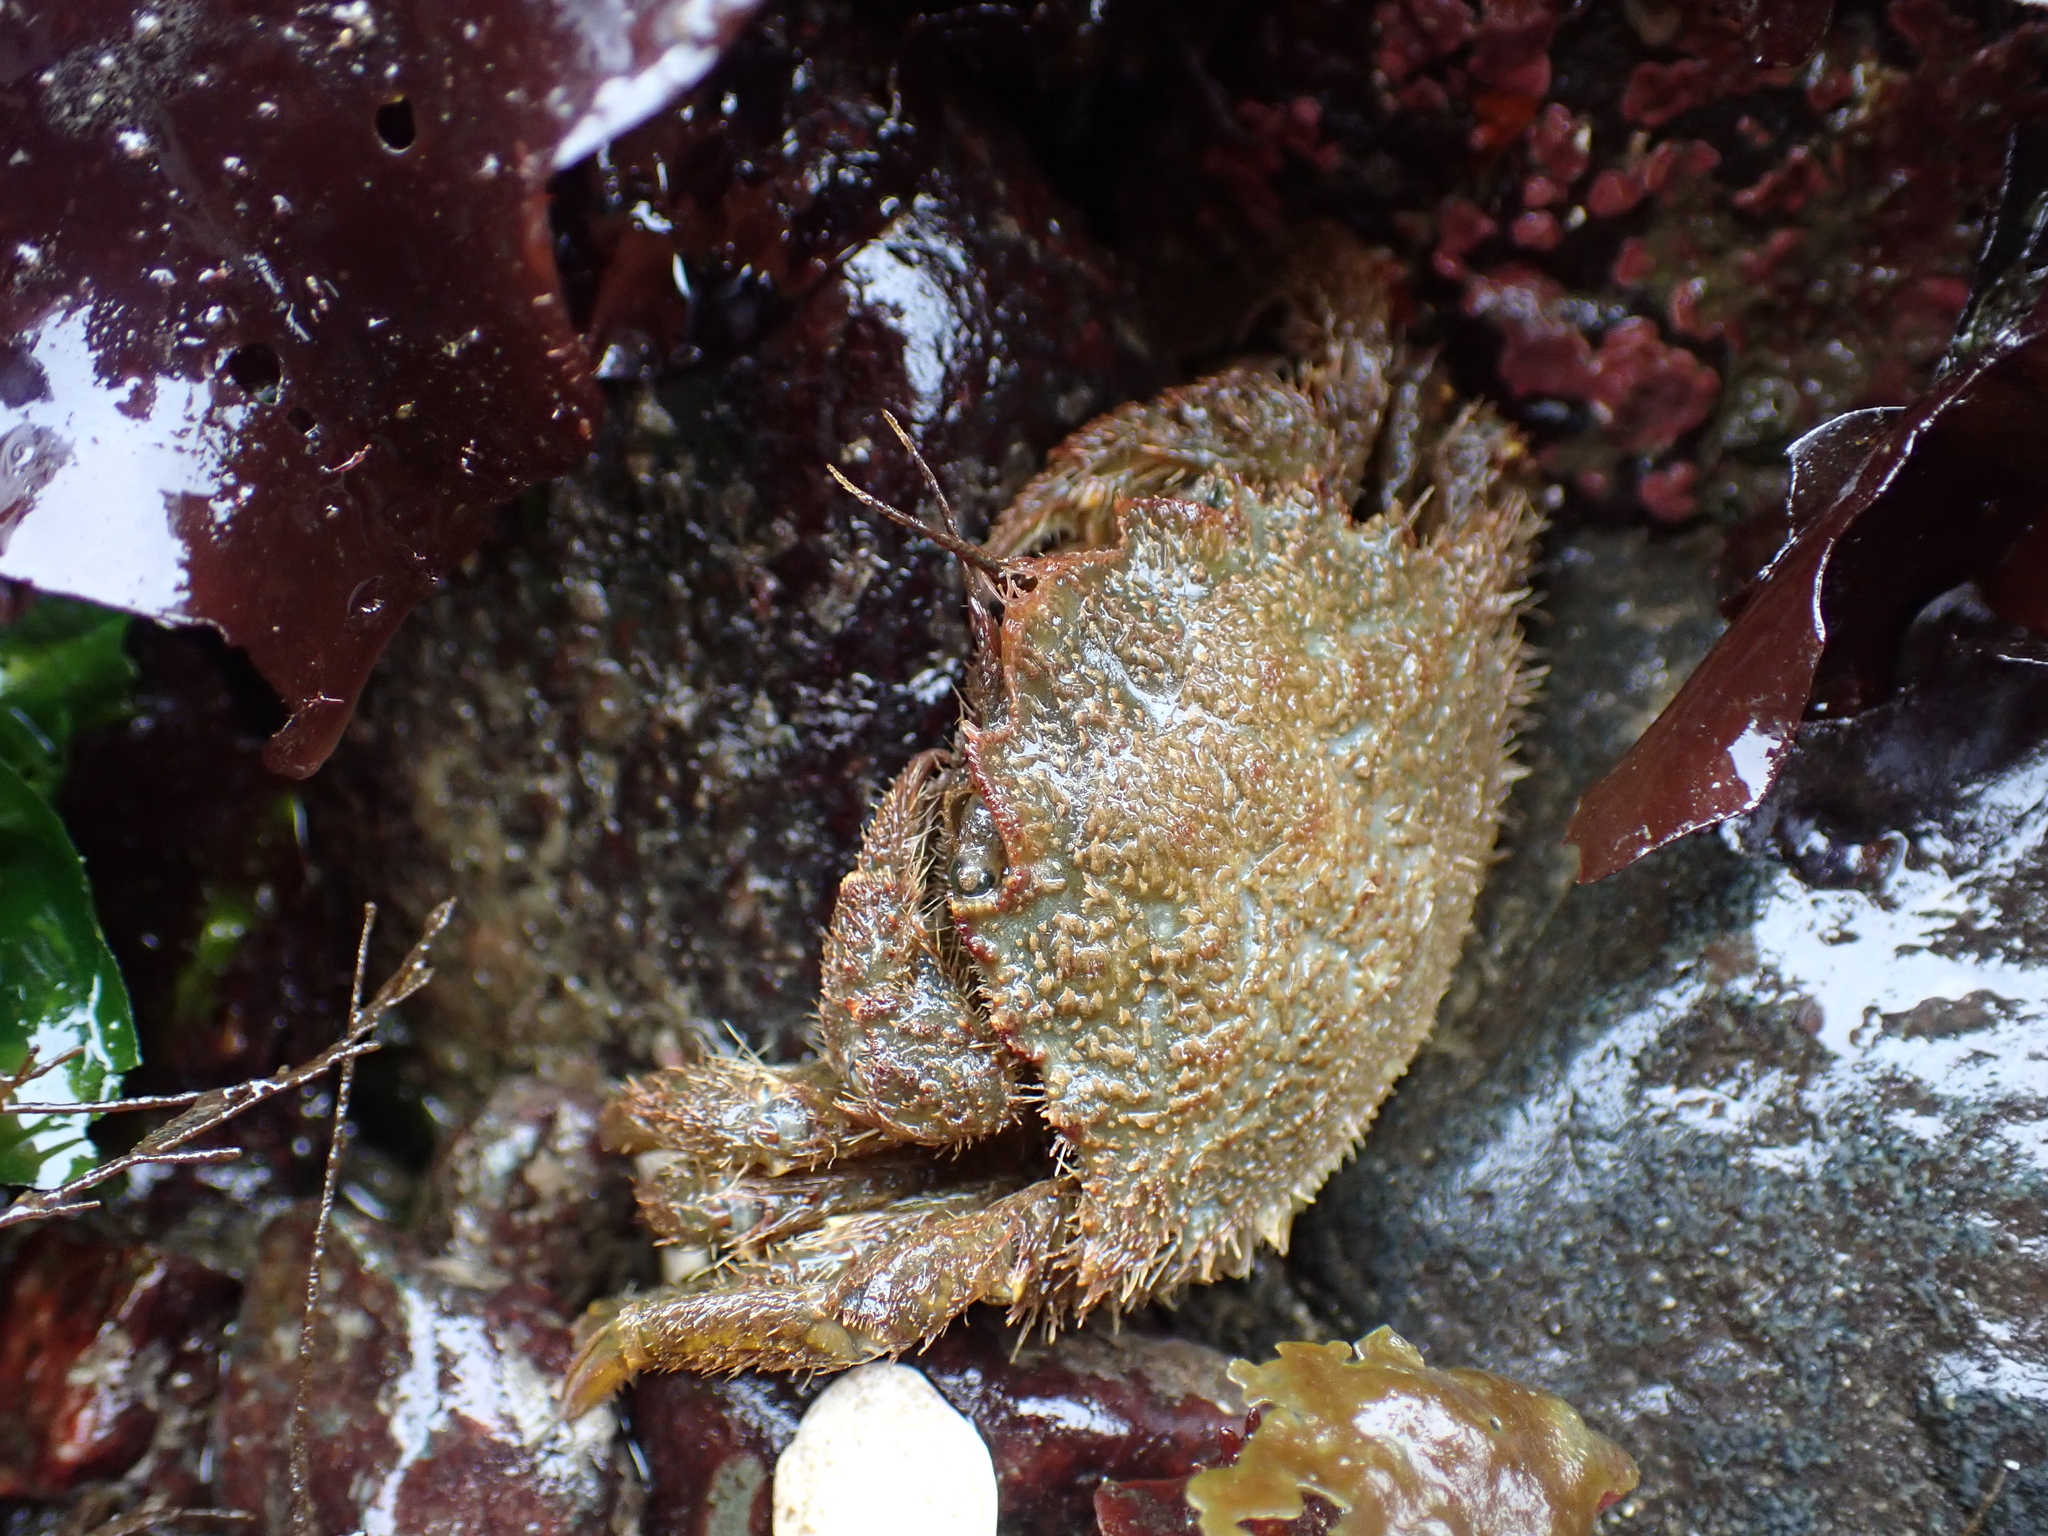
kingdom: Animalia
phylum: Arthropoda
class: Malacostraca
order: Decapoda
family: Cheiragonidae
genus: Telmessus
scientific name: Telmessus cheiragonus
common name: Helmet crab
